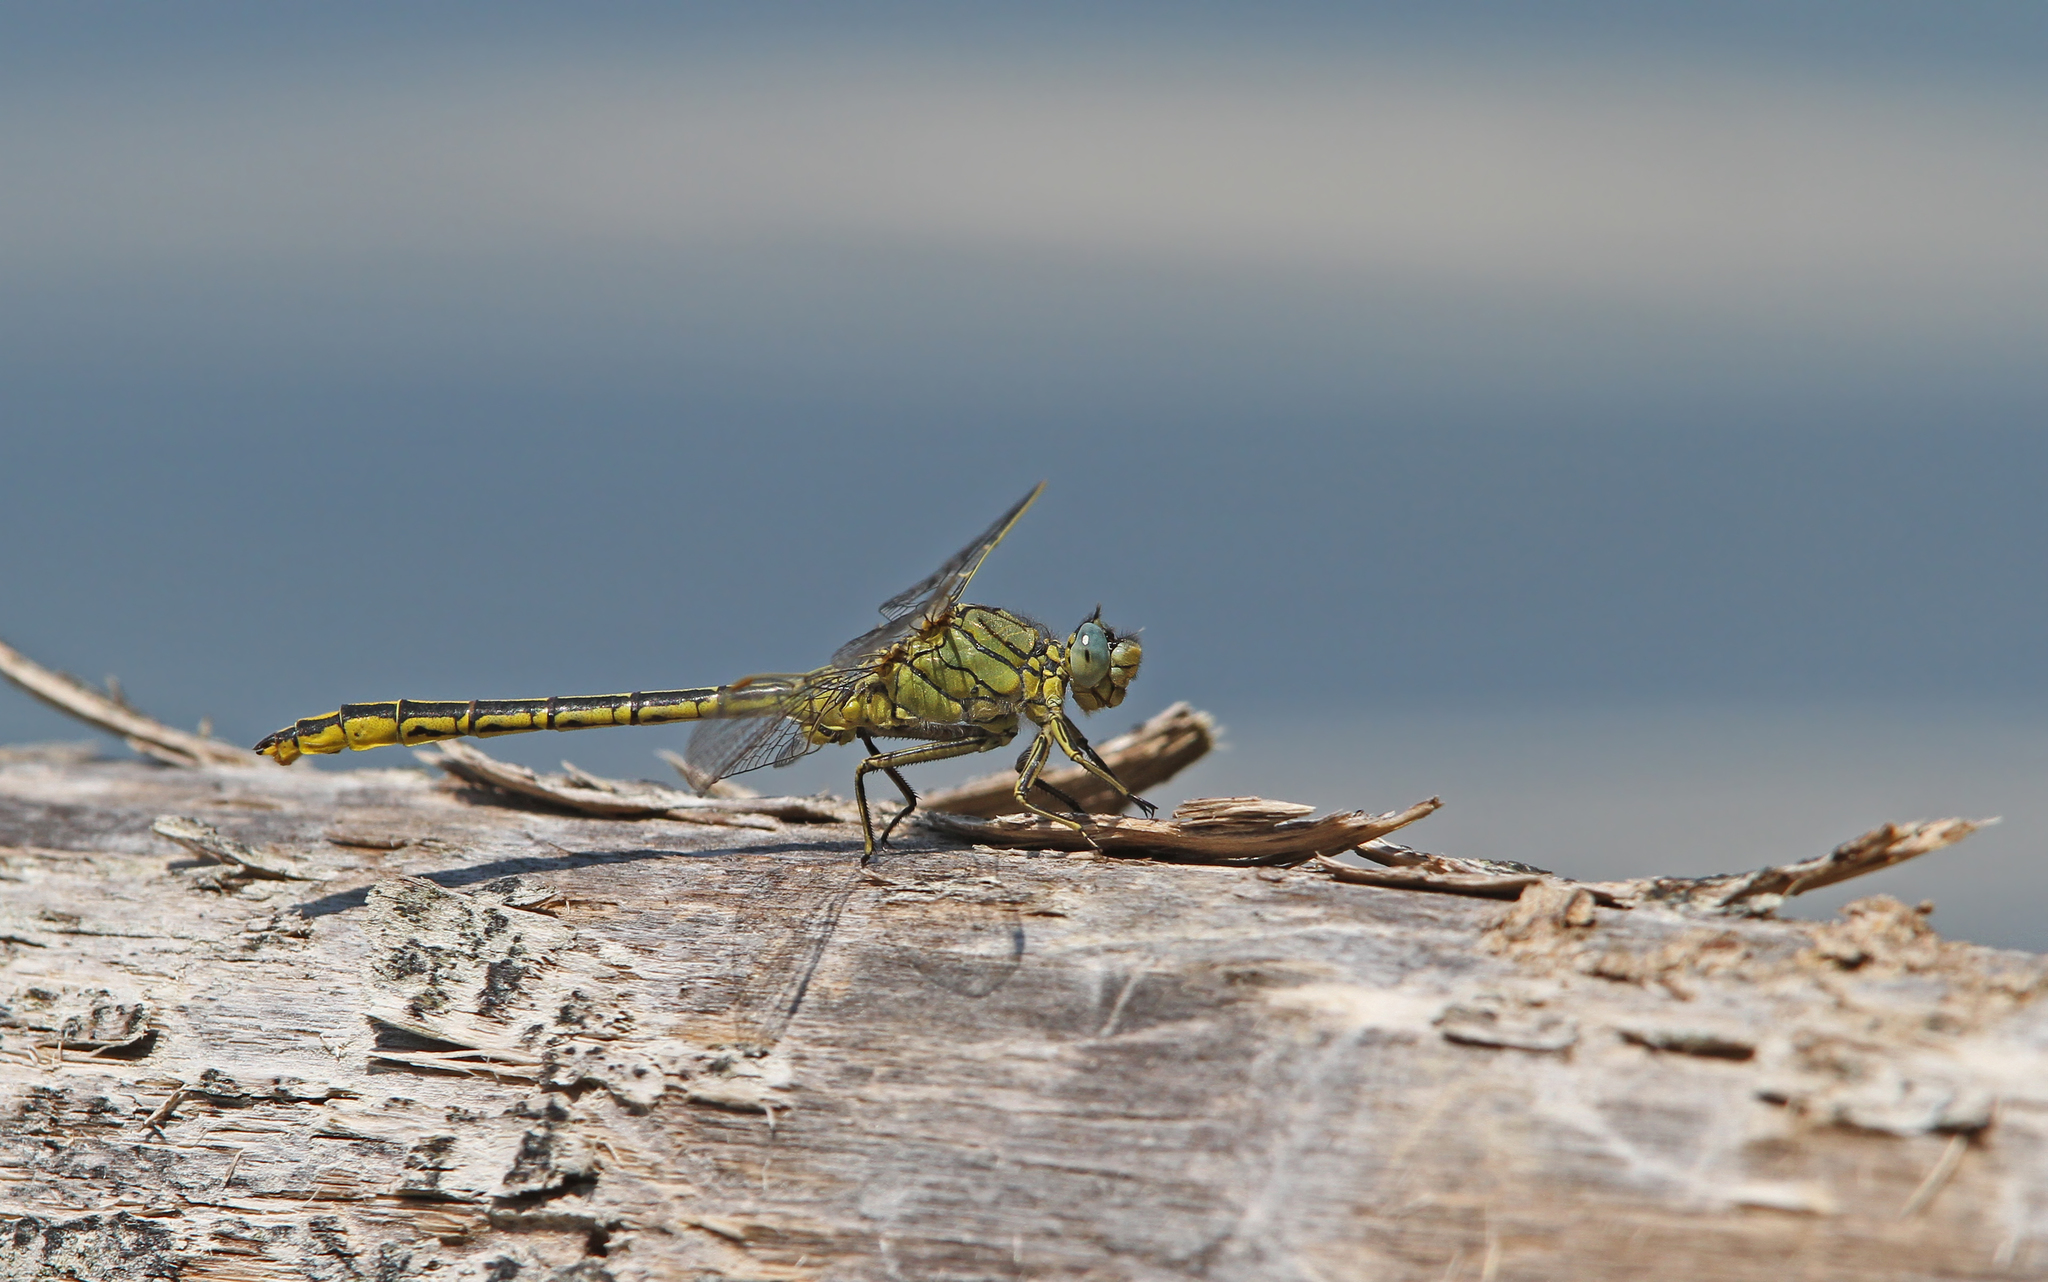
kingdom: Animalia
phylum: Arthropoda
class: Insecta
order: Odonata
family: Gomphidae
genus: Gomphus
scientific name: Gomphus pulchellus
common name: Western clubtail
